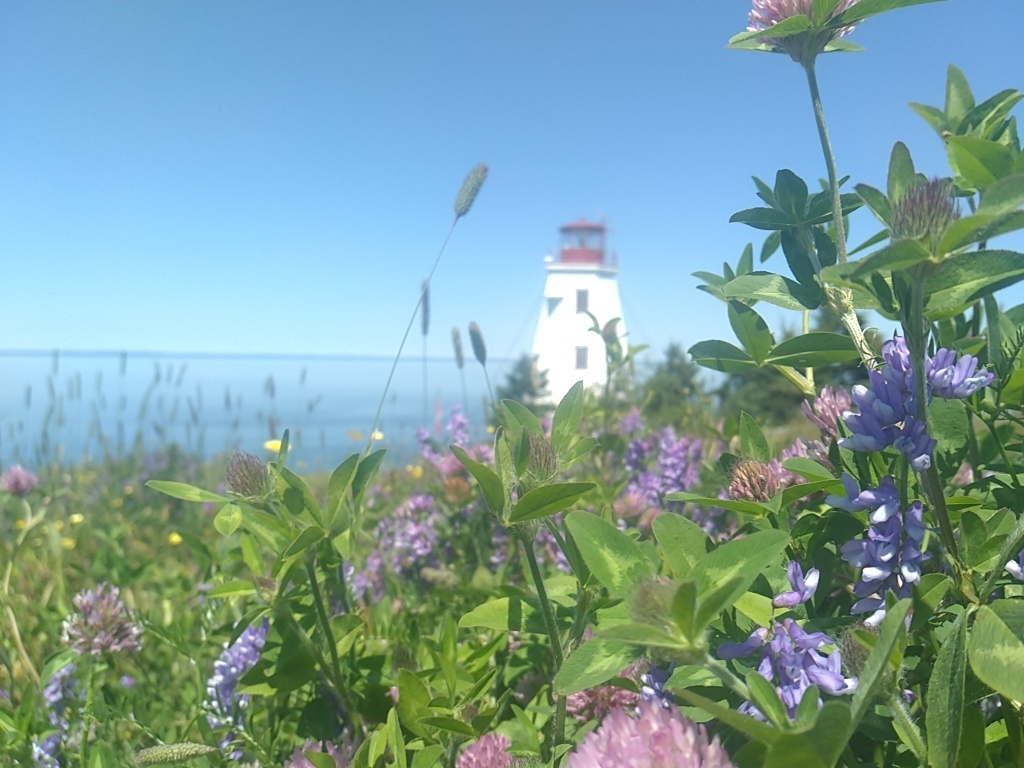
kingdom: Plantae
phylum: Tracheophyta
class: Magnoliopsida
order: Fabales
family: Fabaceae
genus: Vicia
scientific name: Vicia cracca
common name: Bird vetch
